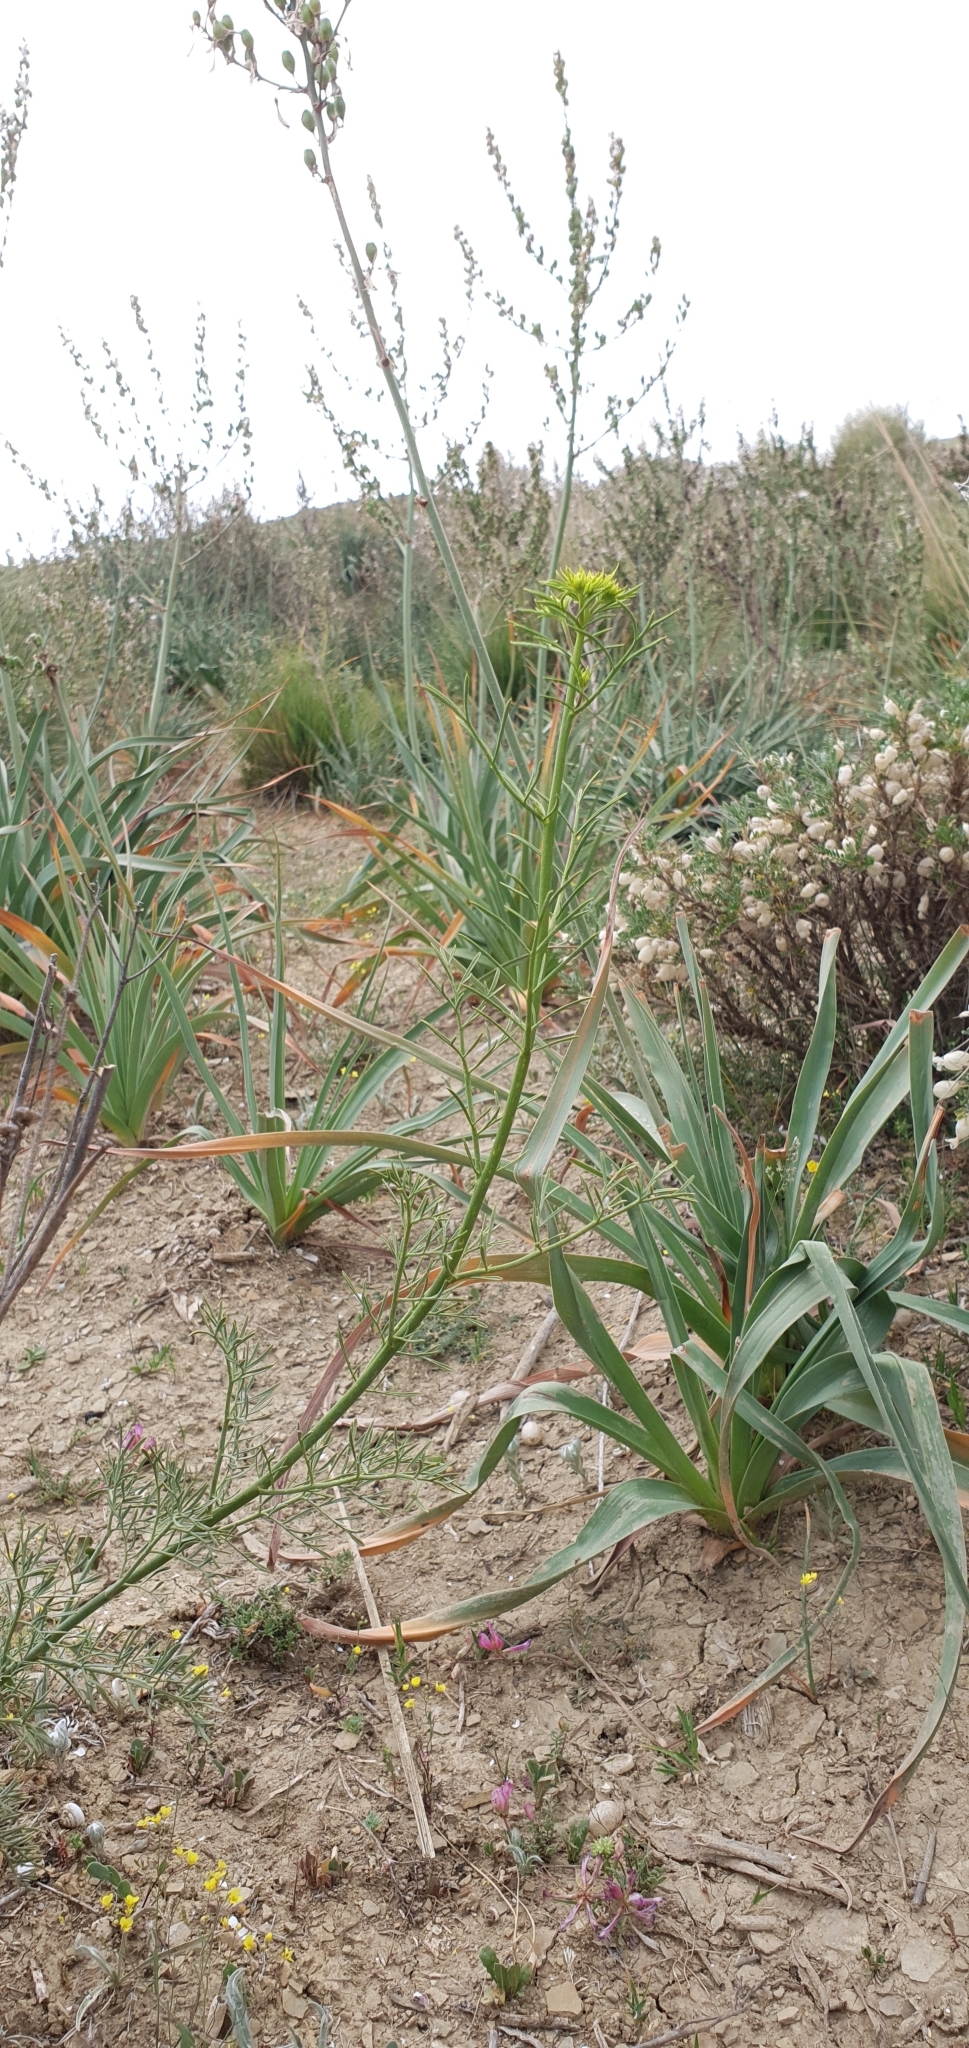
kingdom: Plantae
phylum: Tracheophyta
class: Magnoliopsida
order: Sapindales
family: Rutaceae
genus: Ruta
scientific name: Ruta montana
